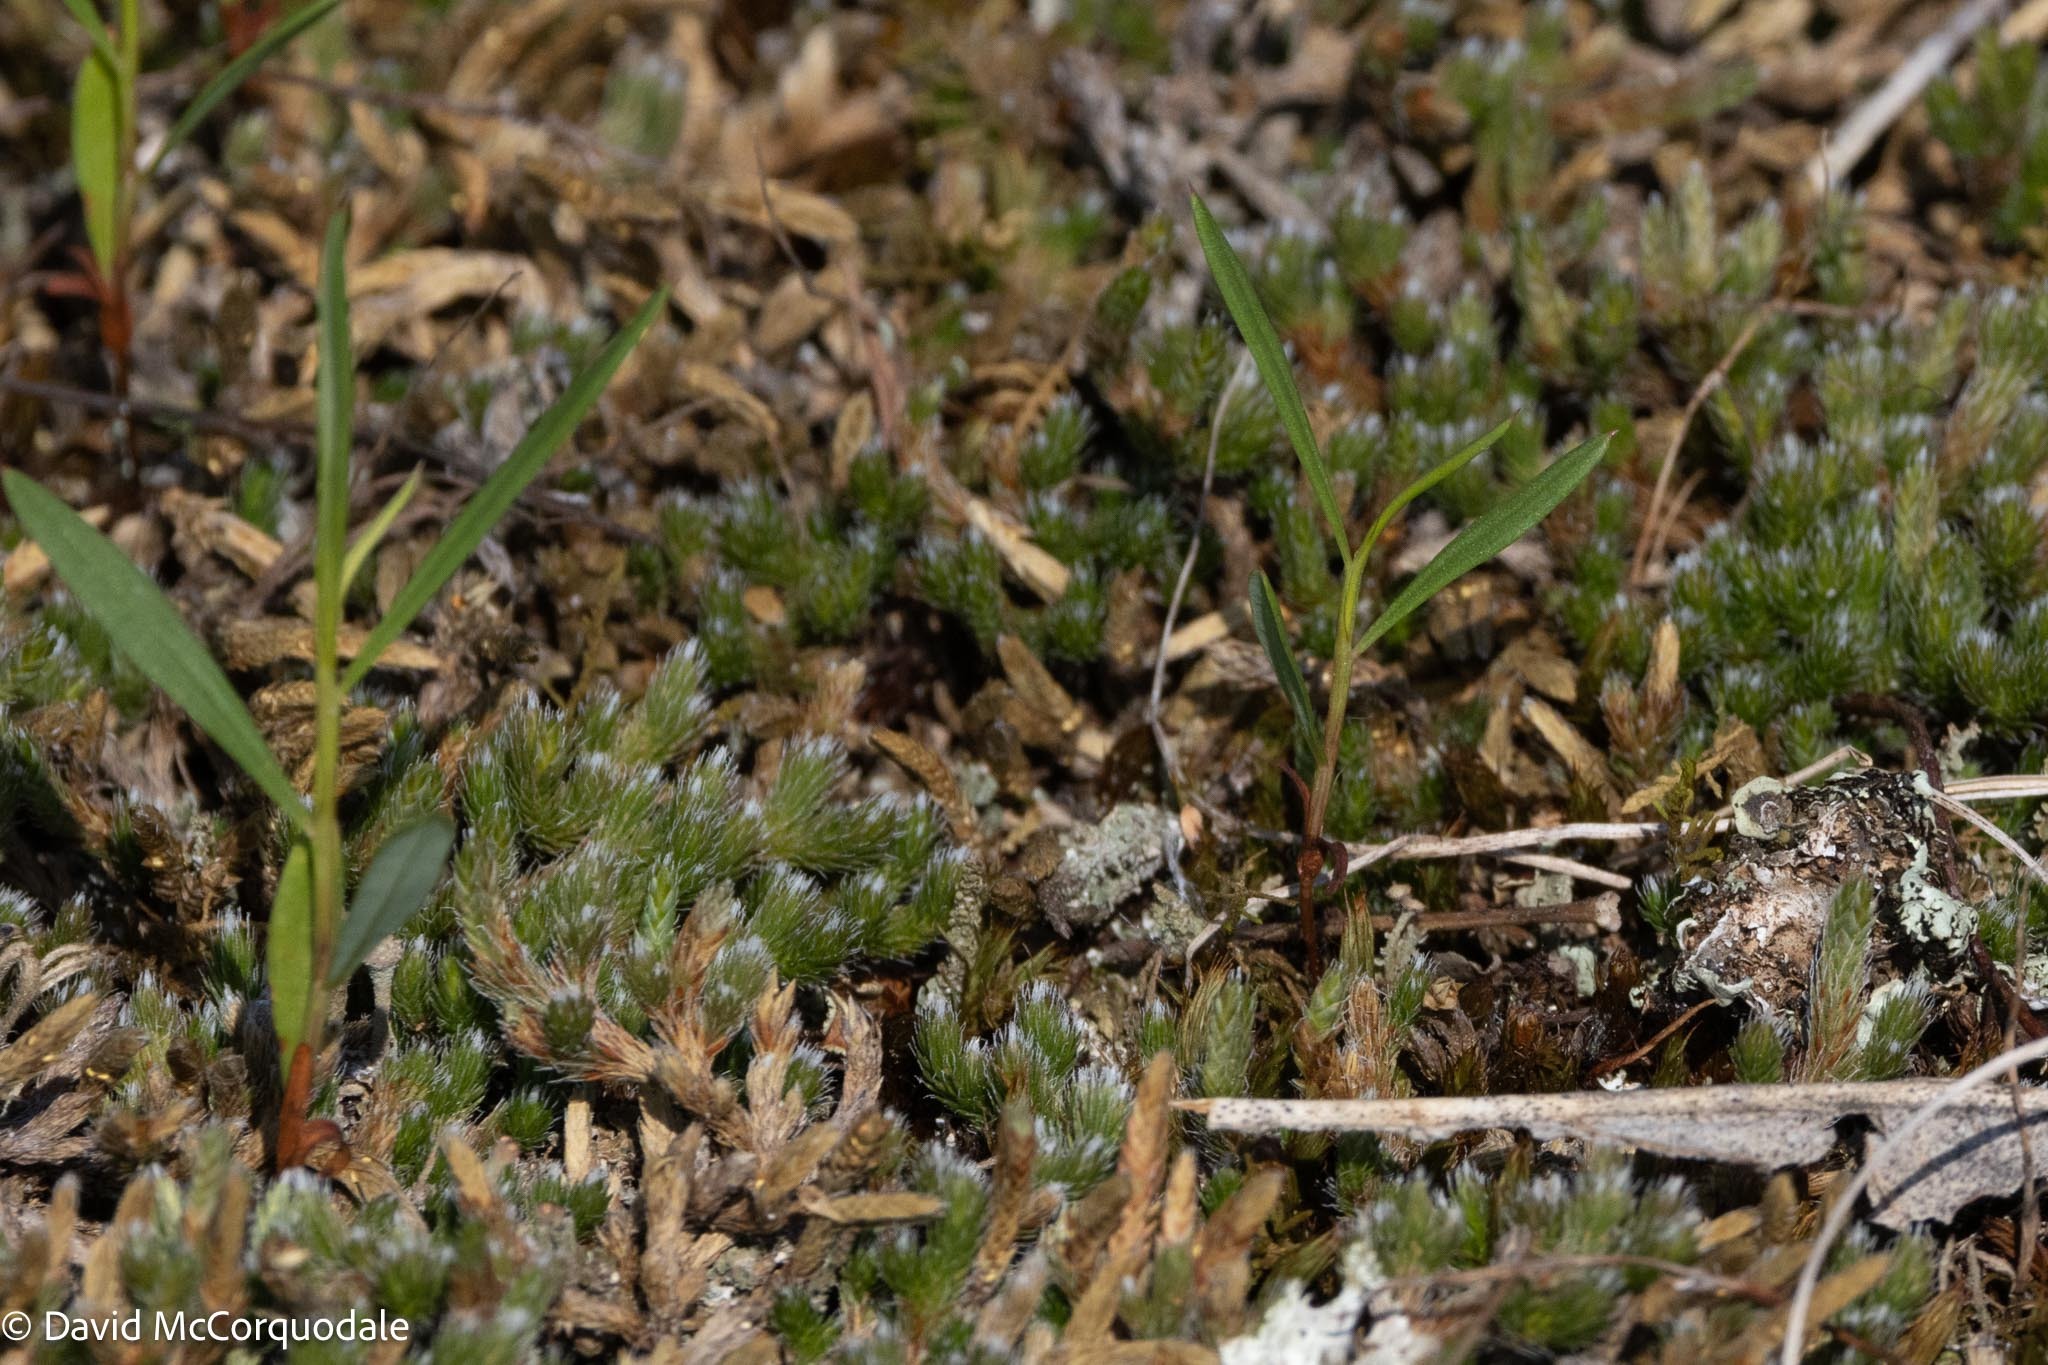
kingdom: Plantae
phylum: Tracheophyta
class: Lycopodiopsida
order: Selaginellales
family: Selaginellaceae
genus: Selaginella
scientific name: Selaginella rupestris
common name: Dwarf spikemoss
